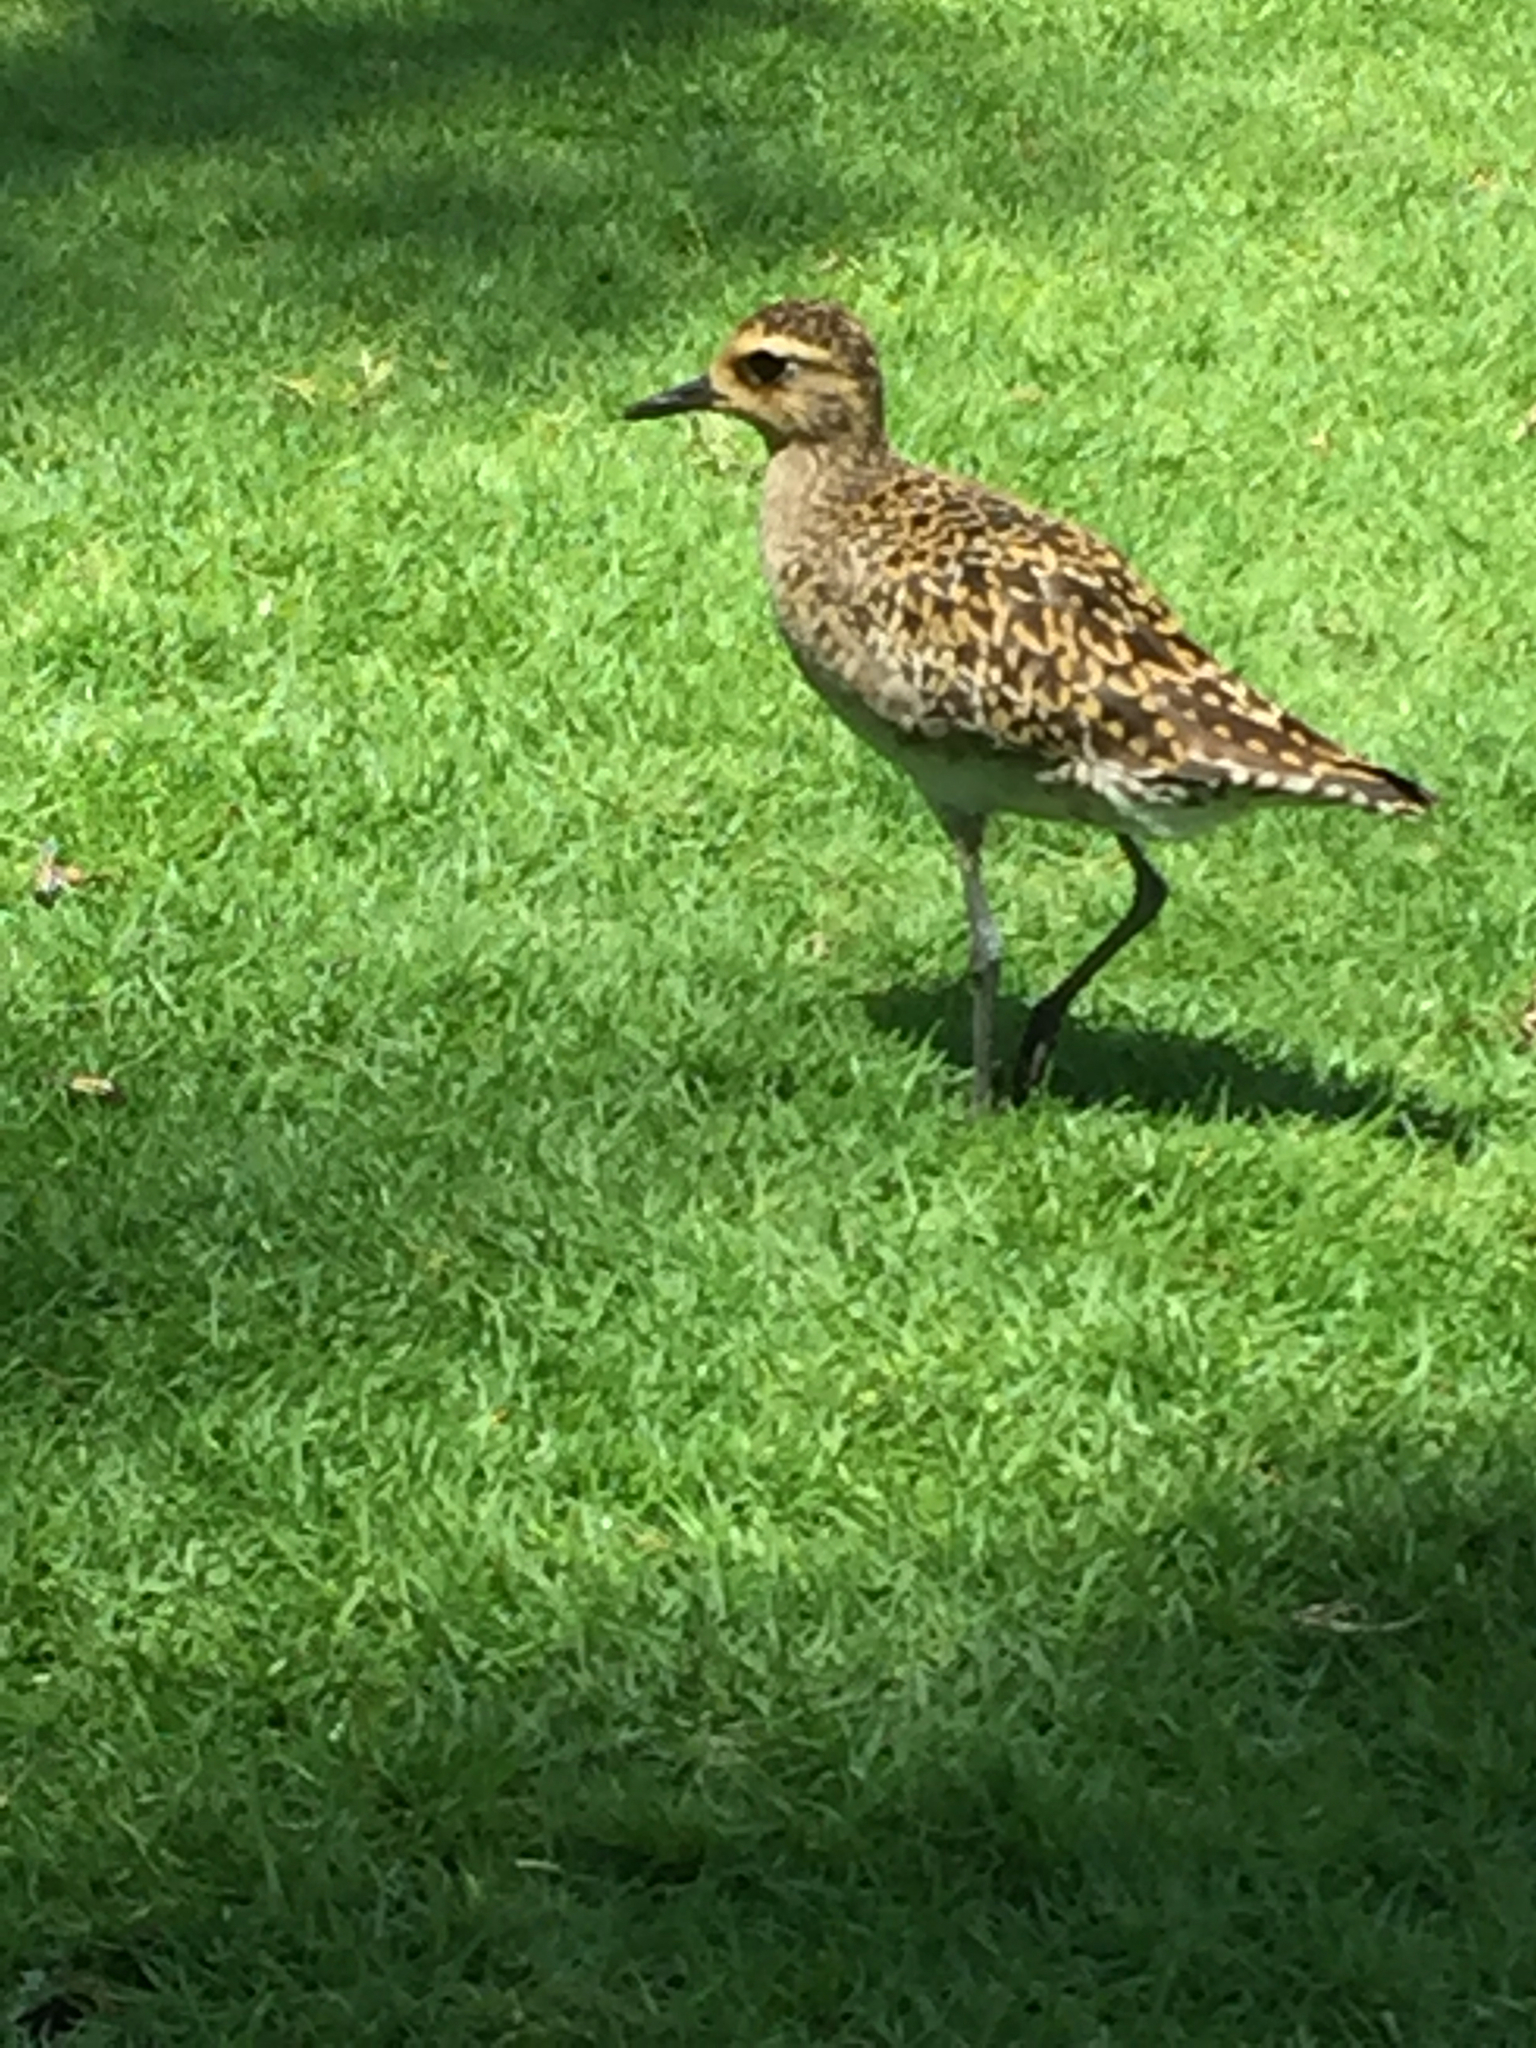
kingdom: Animalia
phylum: Chordata
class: Aves
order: Charadriiformes
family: Charadriidae
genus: Pluvialis
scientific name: Pluvialis fulva
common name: Pacific golden plover
